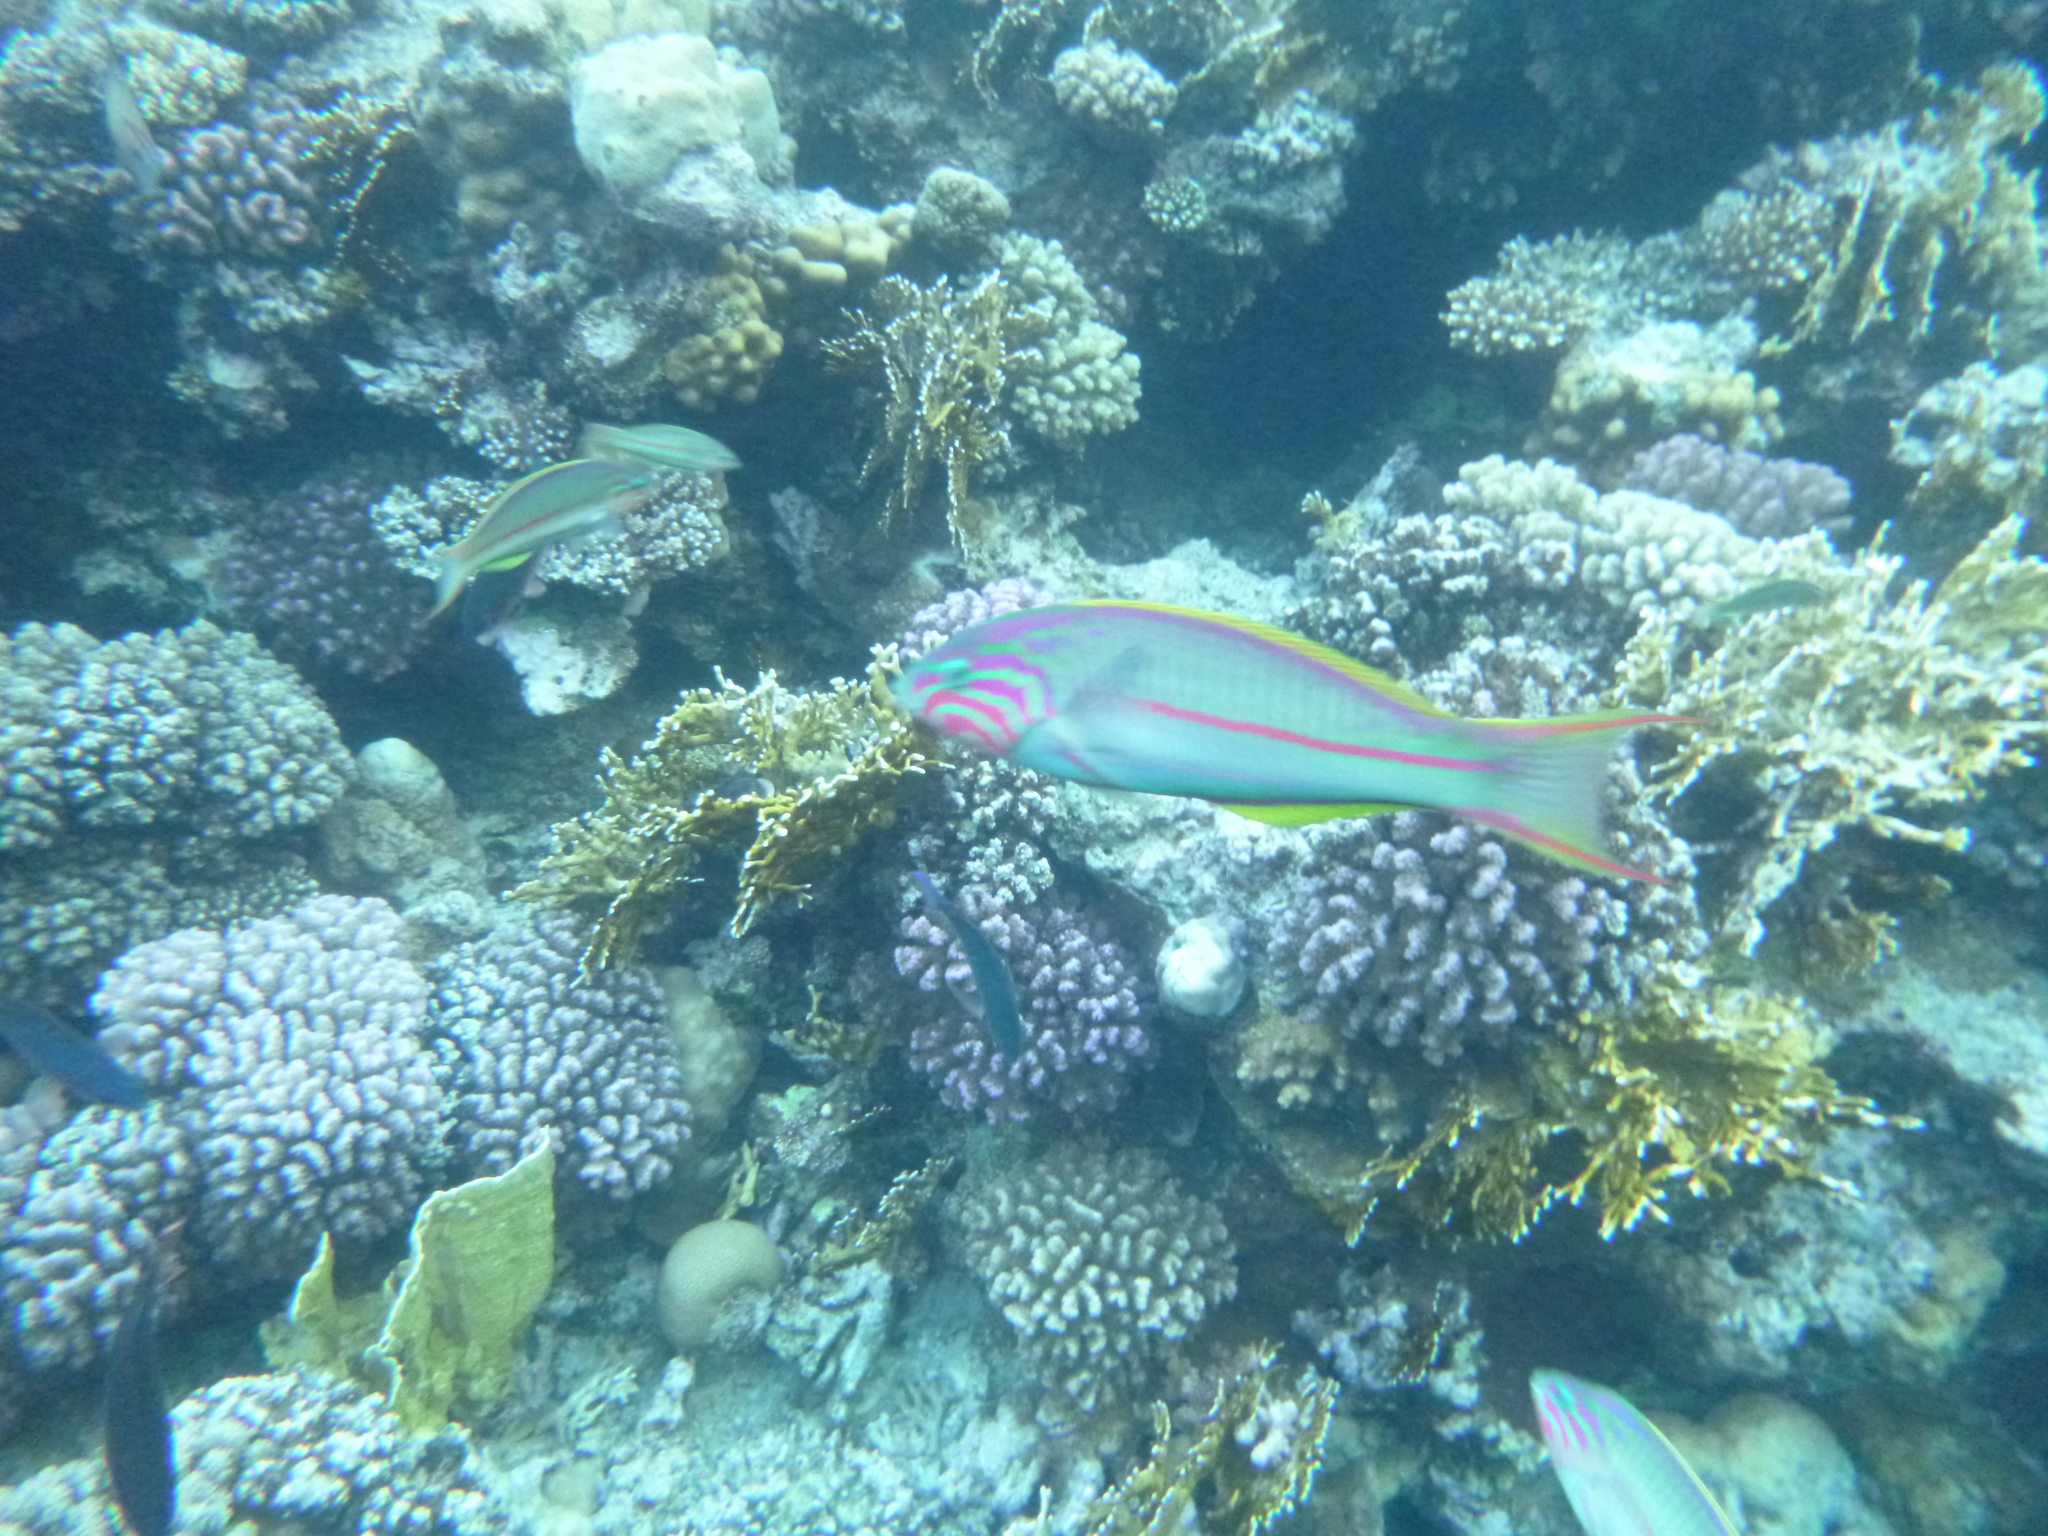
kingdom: Animalia
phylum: Chordata
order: Perciformes
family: Labridae
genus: Thalassoma
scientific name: Thalassoma rueppellii
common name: Klunzinger's wrasse
